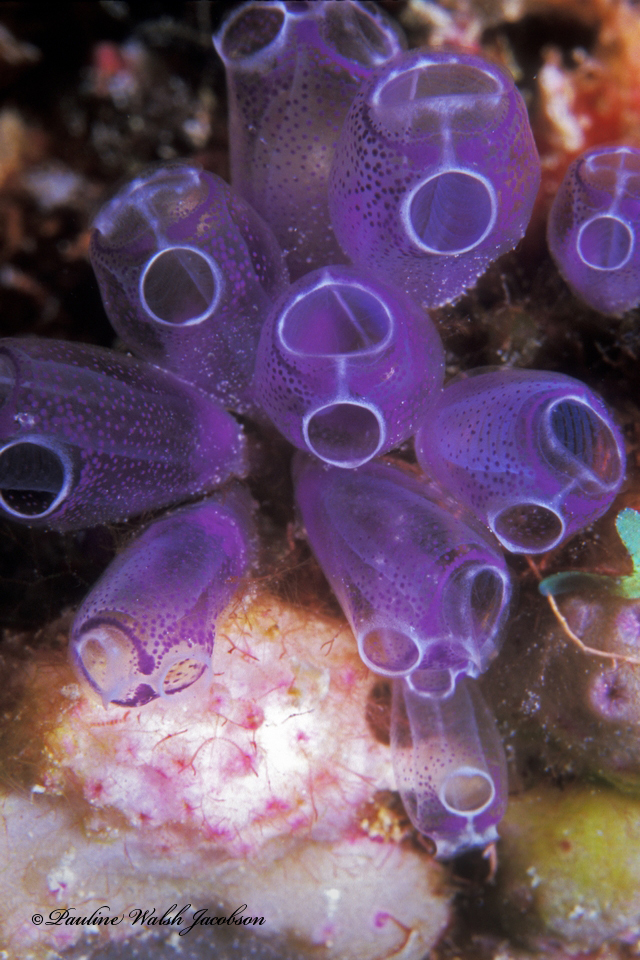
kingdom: Animalia
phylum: Chordata
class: Ascidiacea
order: Aplousobranchia
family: Clavelinidae
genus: Clavelina
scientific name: Clavelina puertosecensis
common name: Blue bell tunicate
